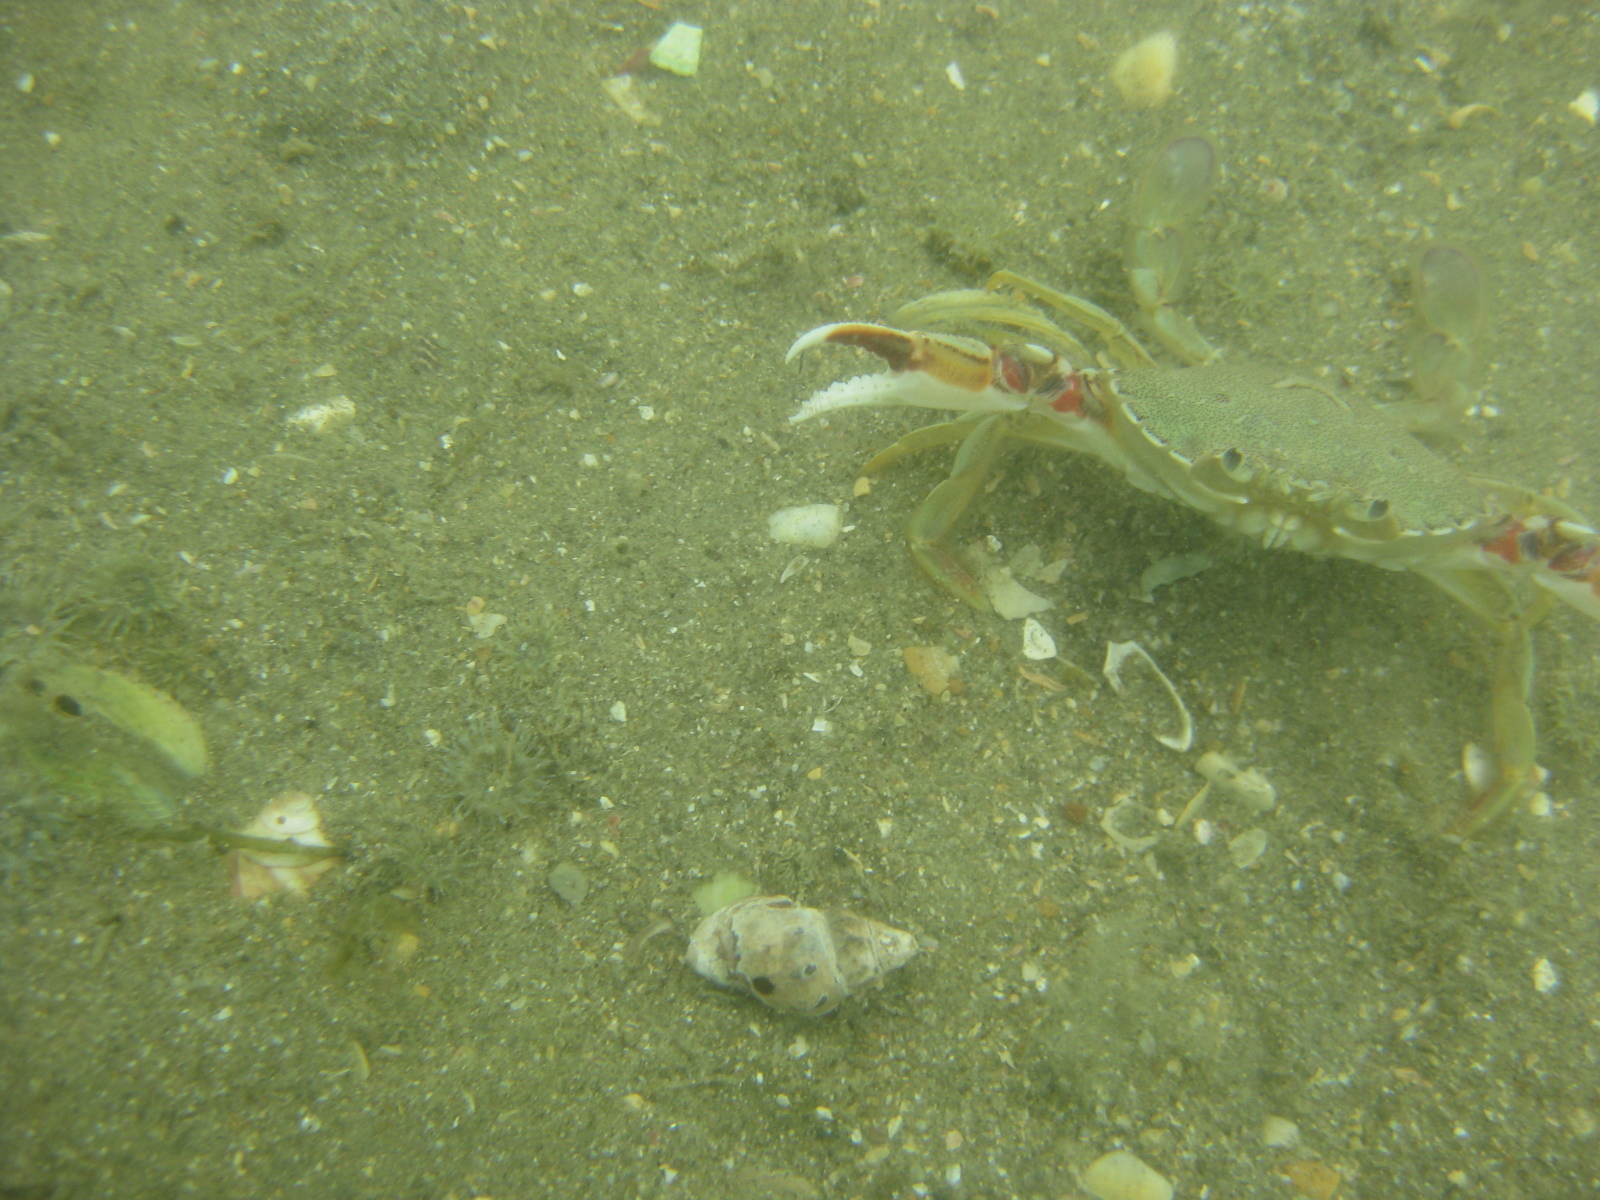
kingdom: Animalia
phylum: Arthropoda
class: Malacostraca
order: Decapoda
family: Ovalipidae
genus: Ovalipes
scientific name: Ovalipes catharus
